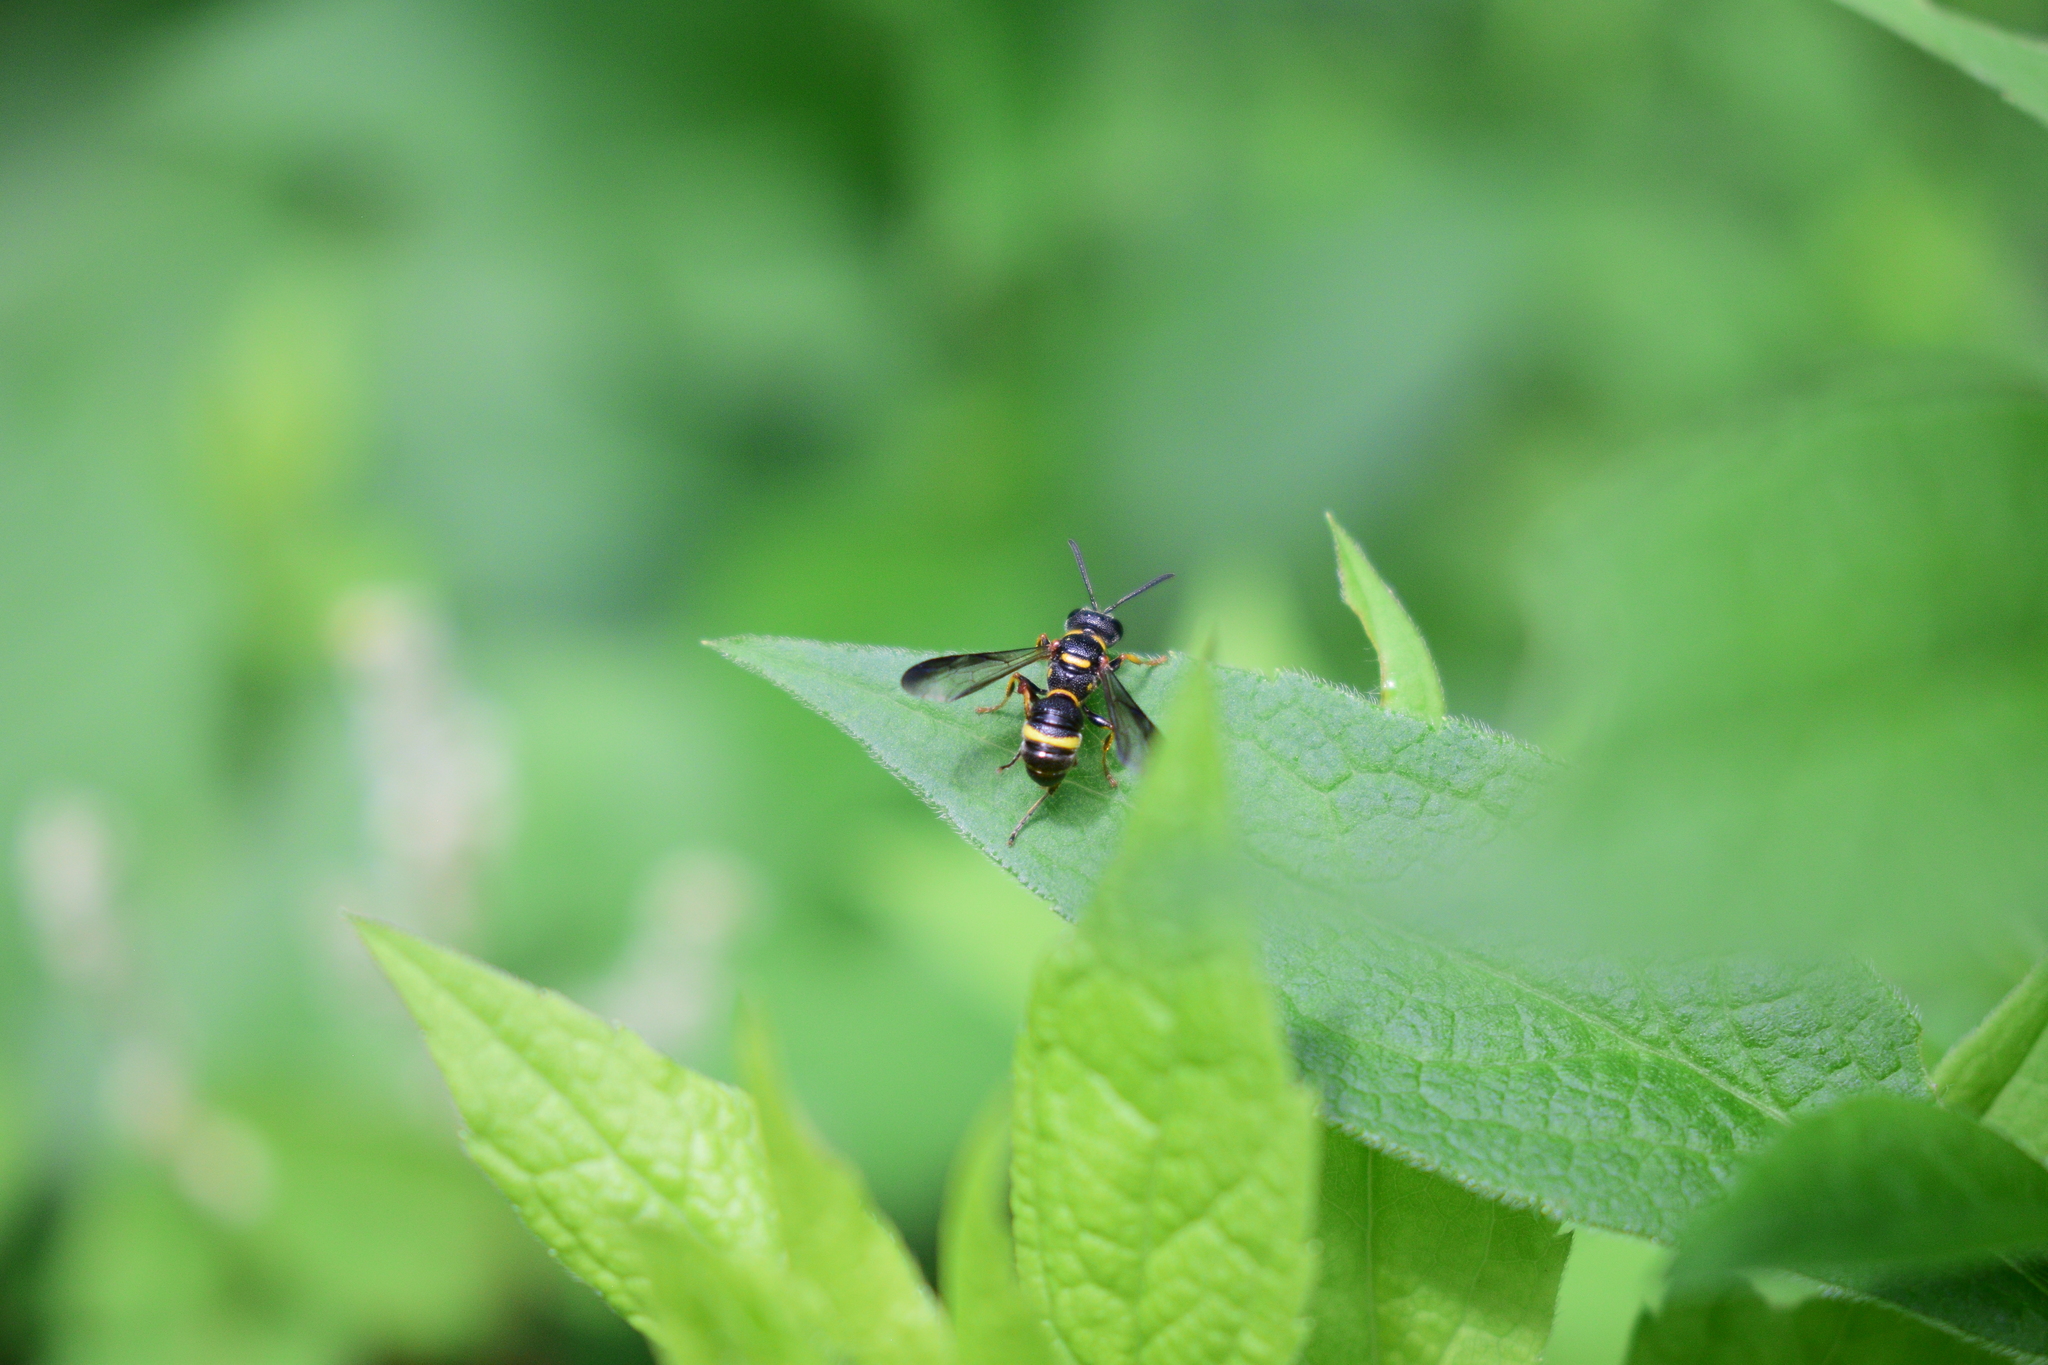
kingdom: Animalia
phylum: Arthropoda
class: Insecta
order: Hymenoptera
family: Crabronidae
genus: Cerceris
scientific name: Cerceris insolita
